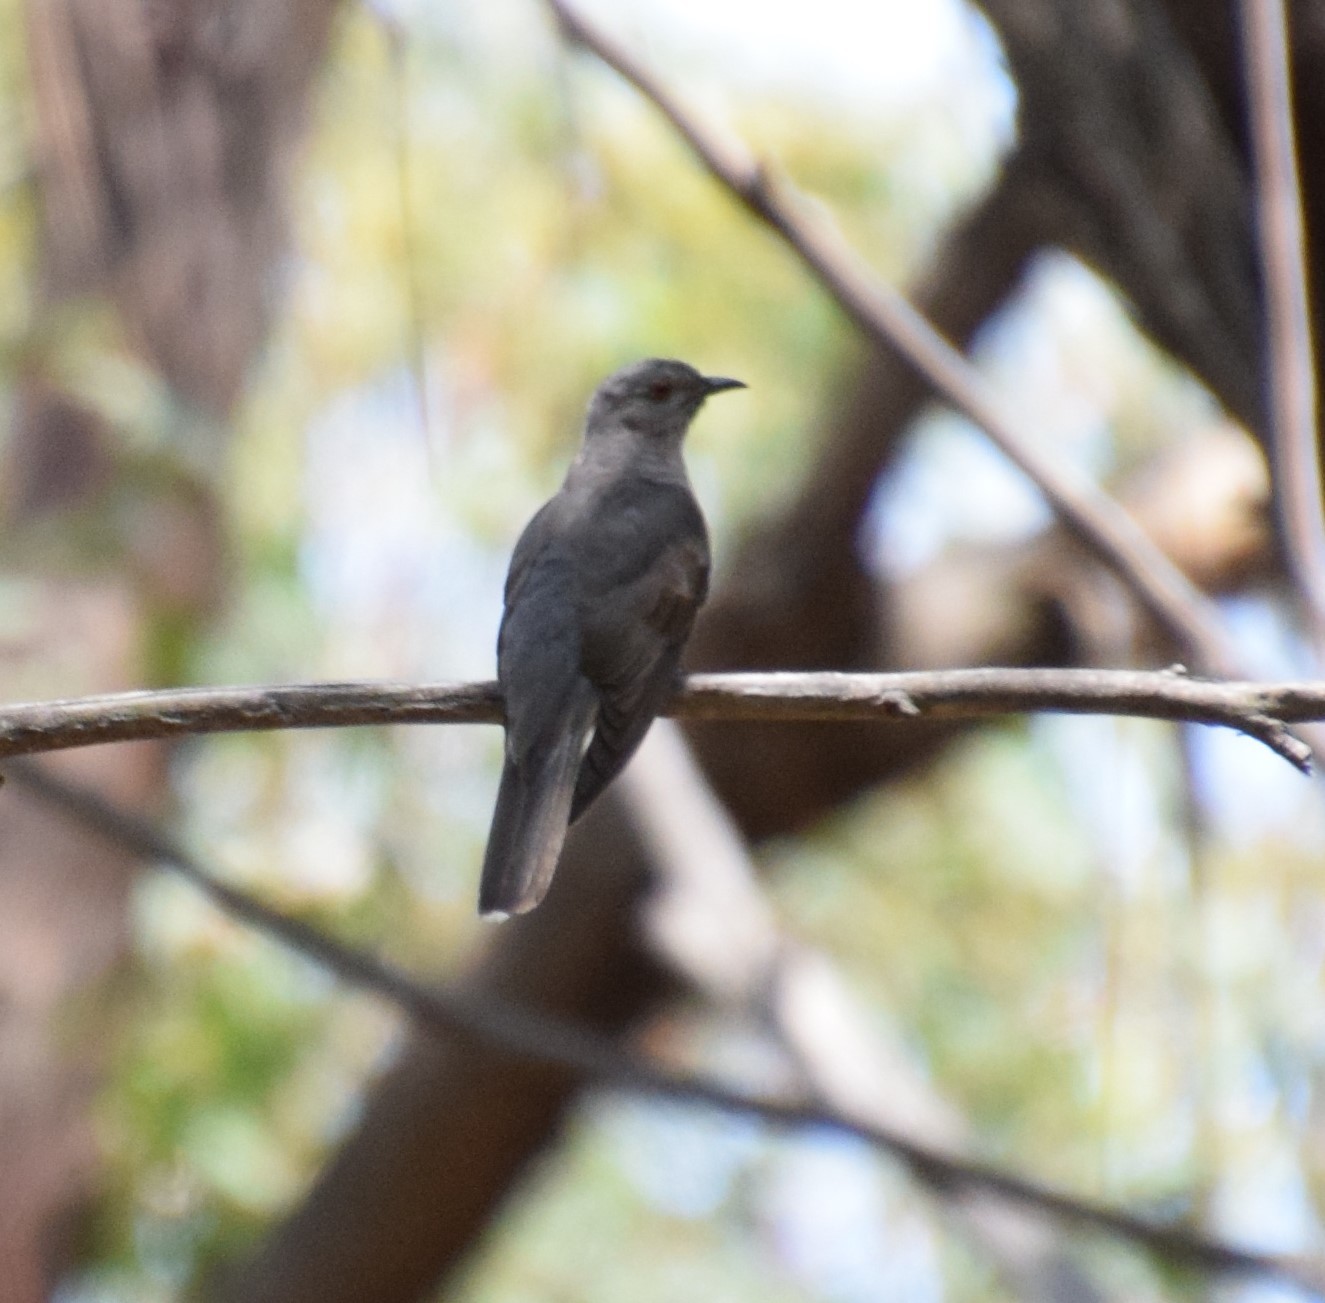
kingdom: Animalia
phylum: Chordata
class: Aves
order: Cuculiformes
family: Cuculidae
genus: Cacomantis
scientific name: Cacomantis variolosus
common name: Brush cuckoo
